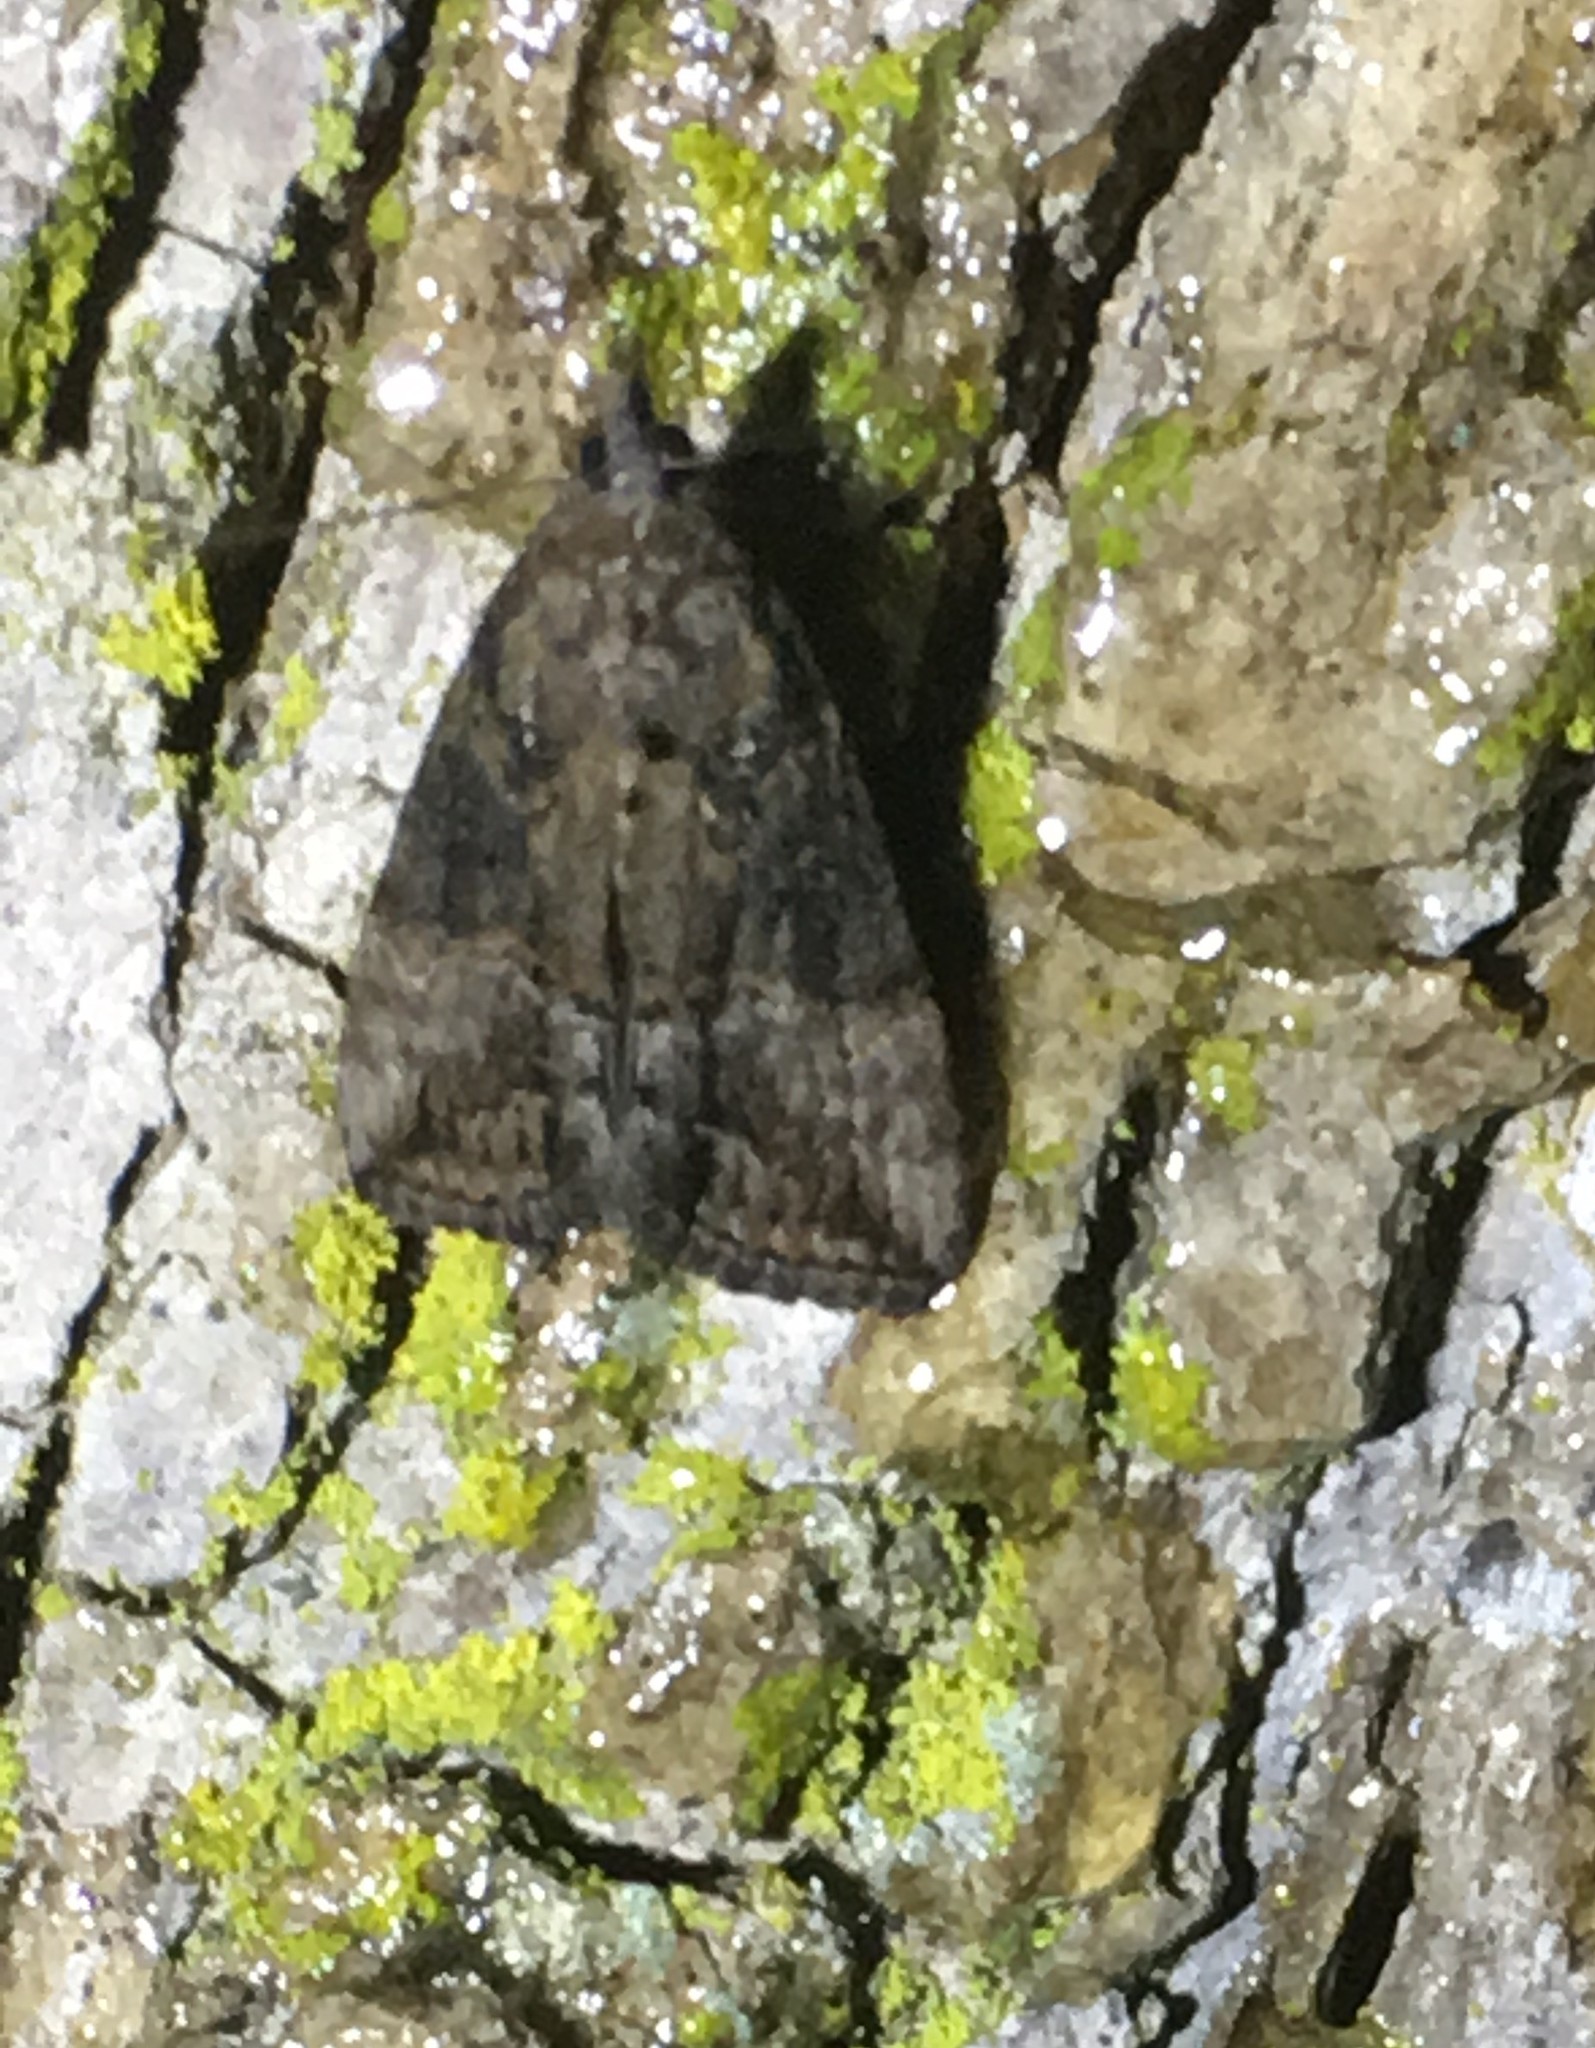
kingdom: Animalia
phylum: Arthropoda
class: Insecta
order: Lepidoptera
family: Erebidae
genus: Hypena
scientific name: Hypena scabra
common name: Green cloverworm
